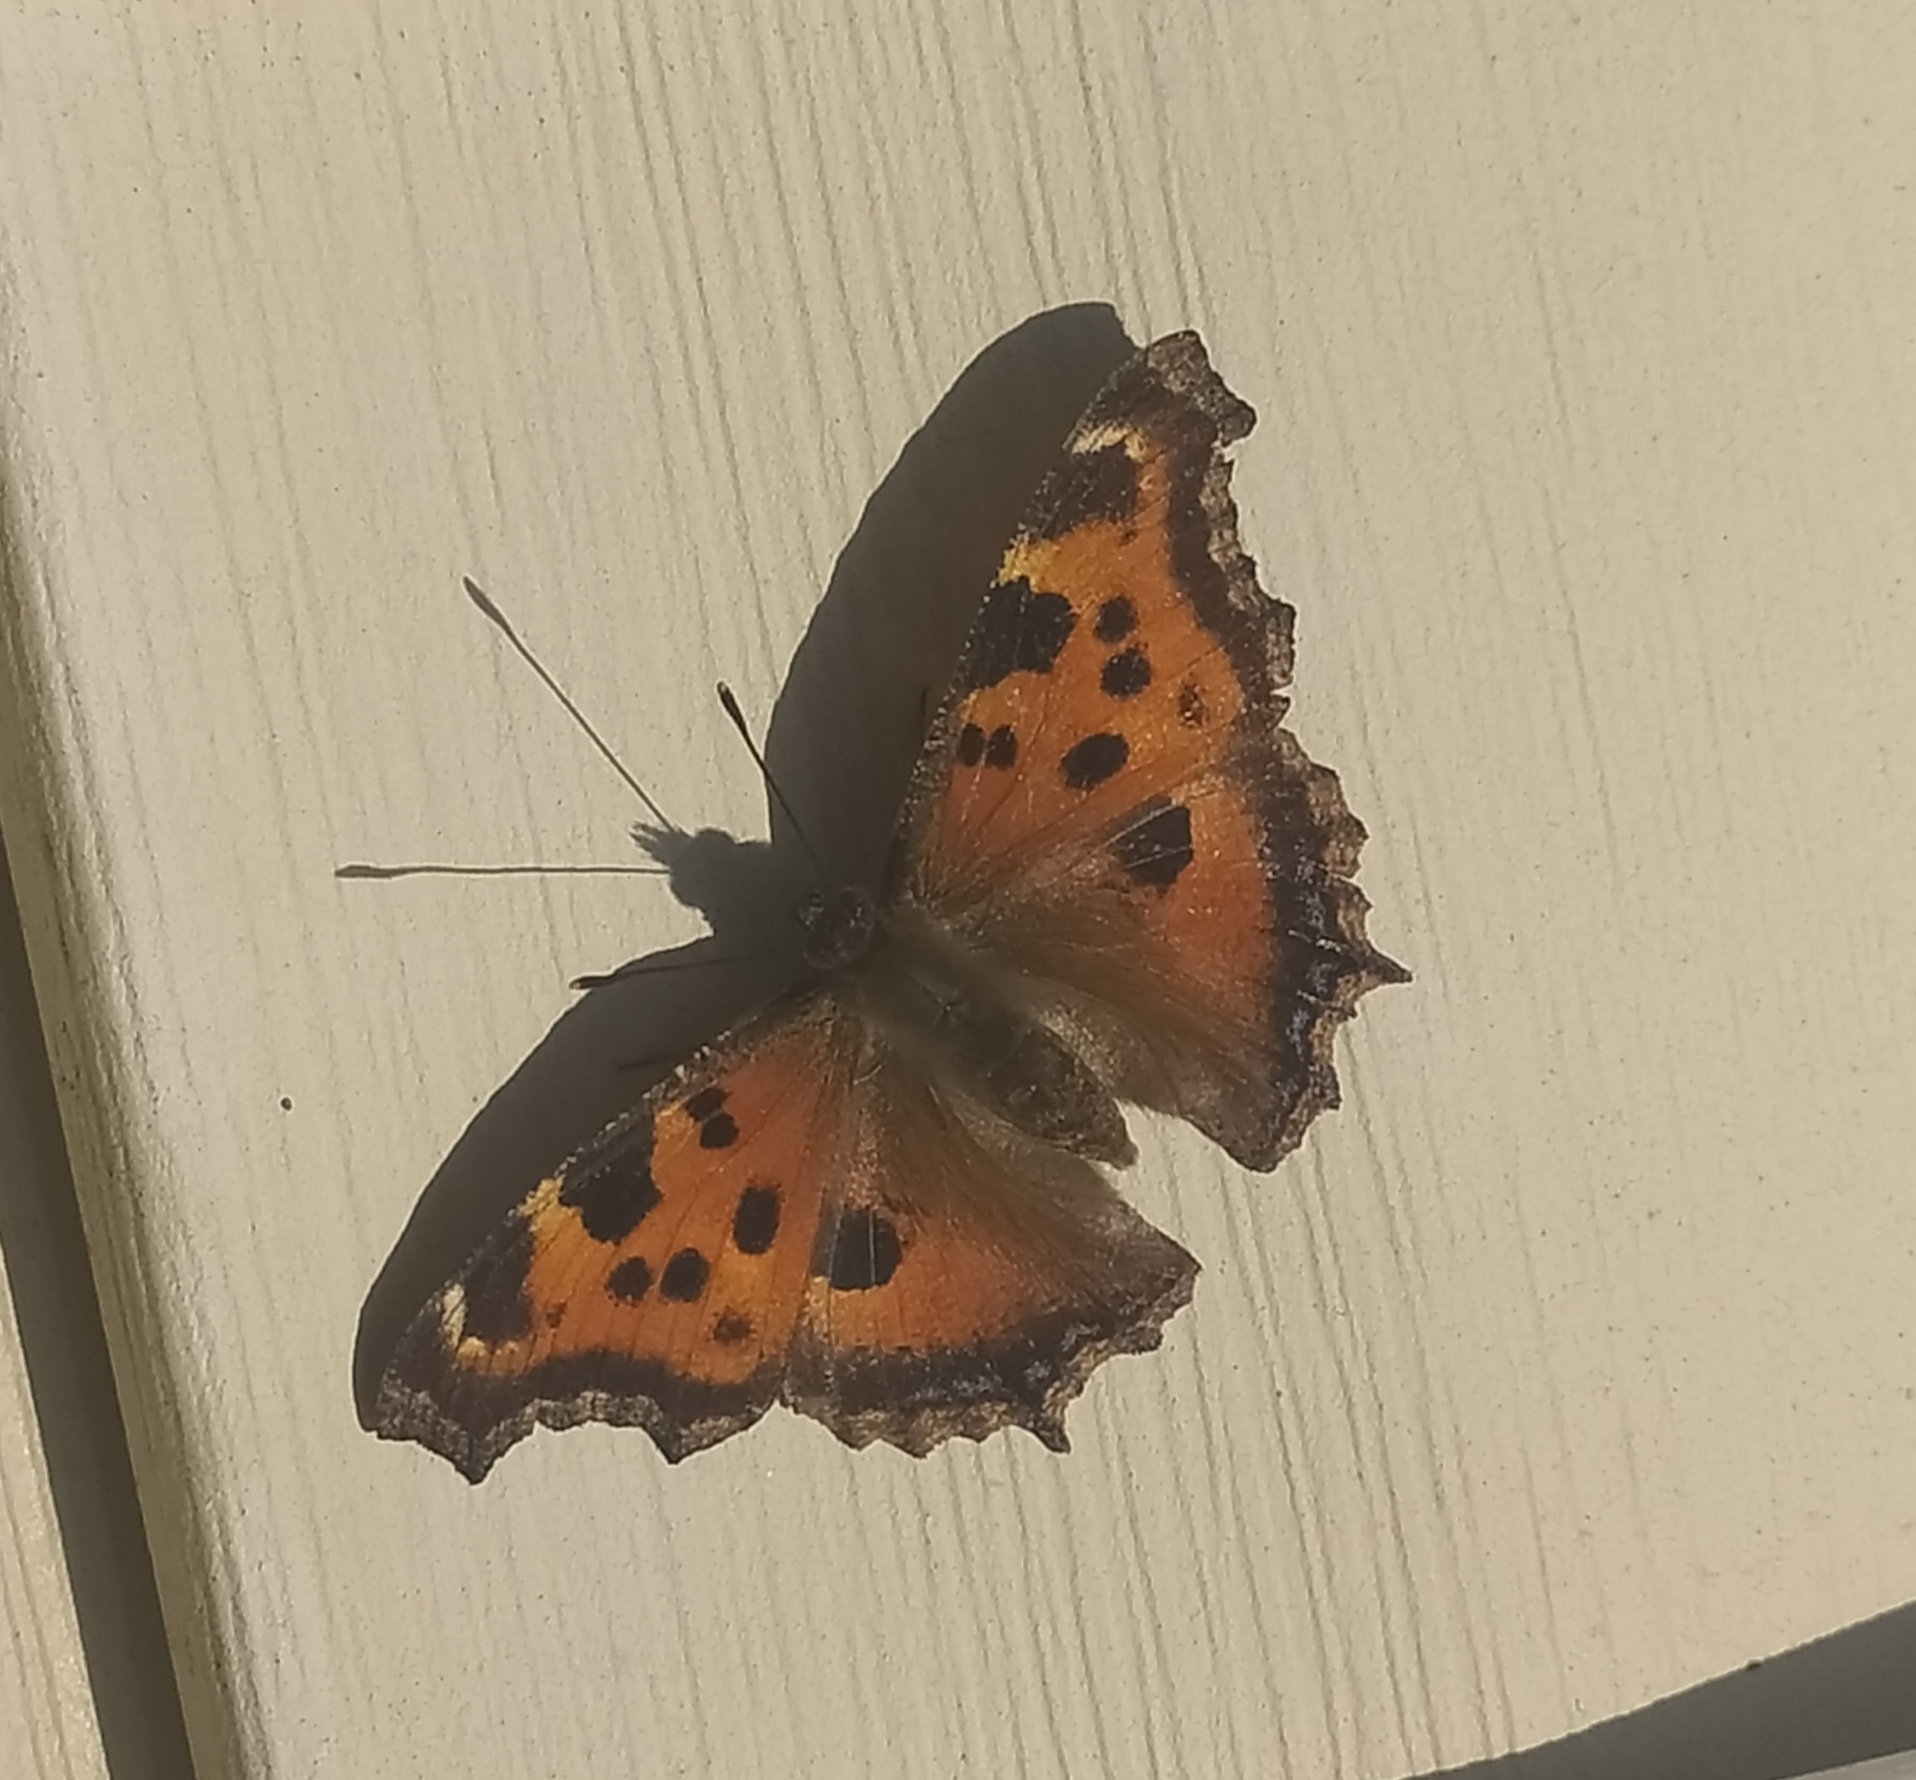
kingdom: Animalia
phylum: Arthropoda
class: Insecta
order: Lepidoptera
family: Nymphalidae
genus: Nymphalis
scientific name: Nymphalis xanthomelas
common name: Scarce tortoiseshell
